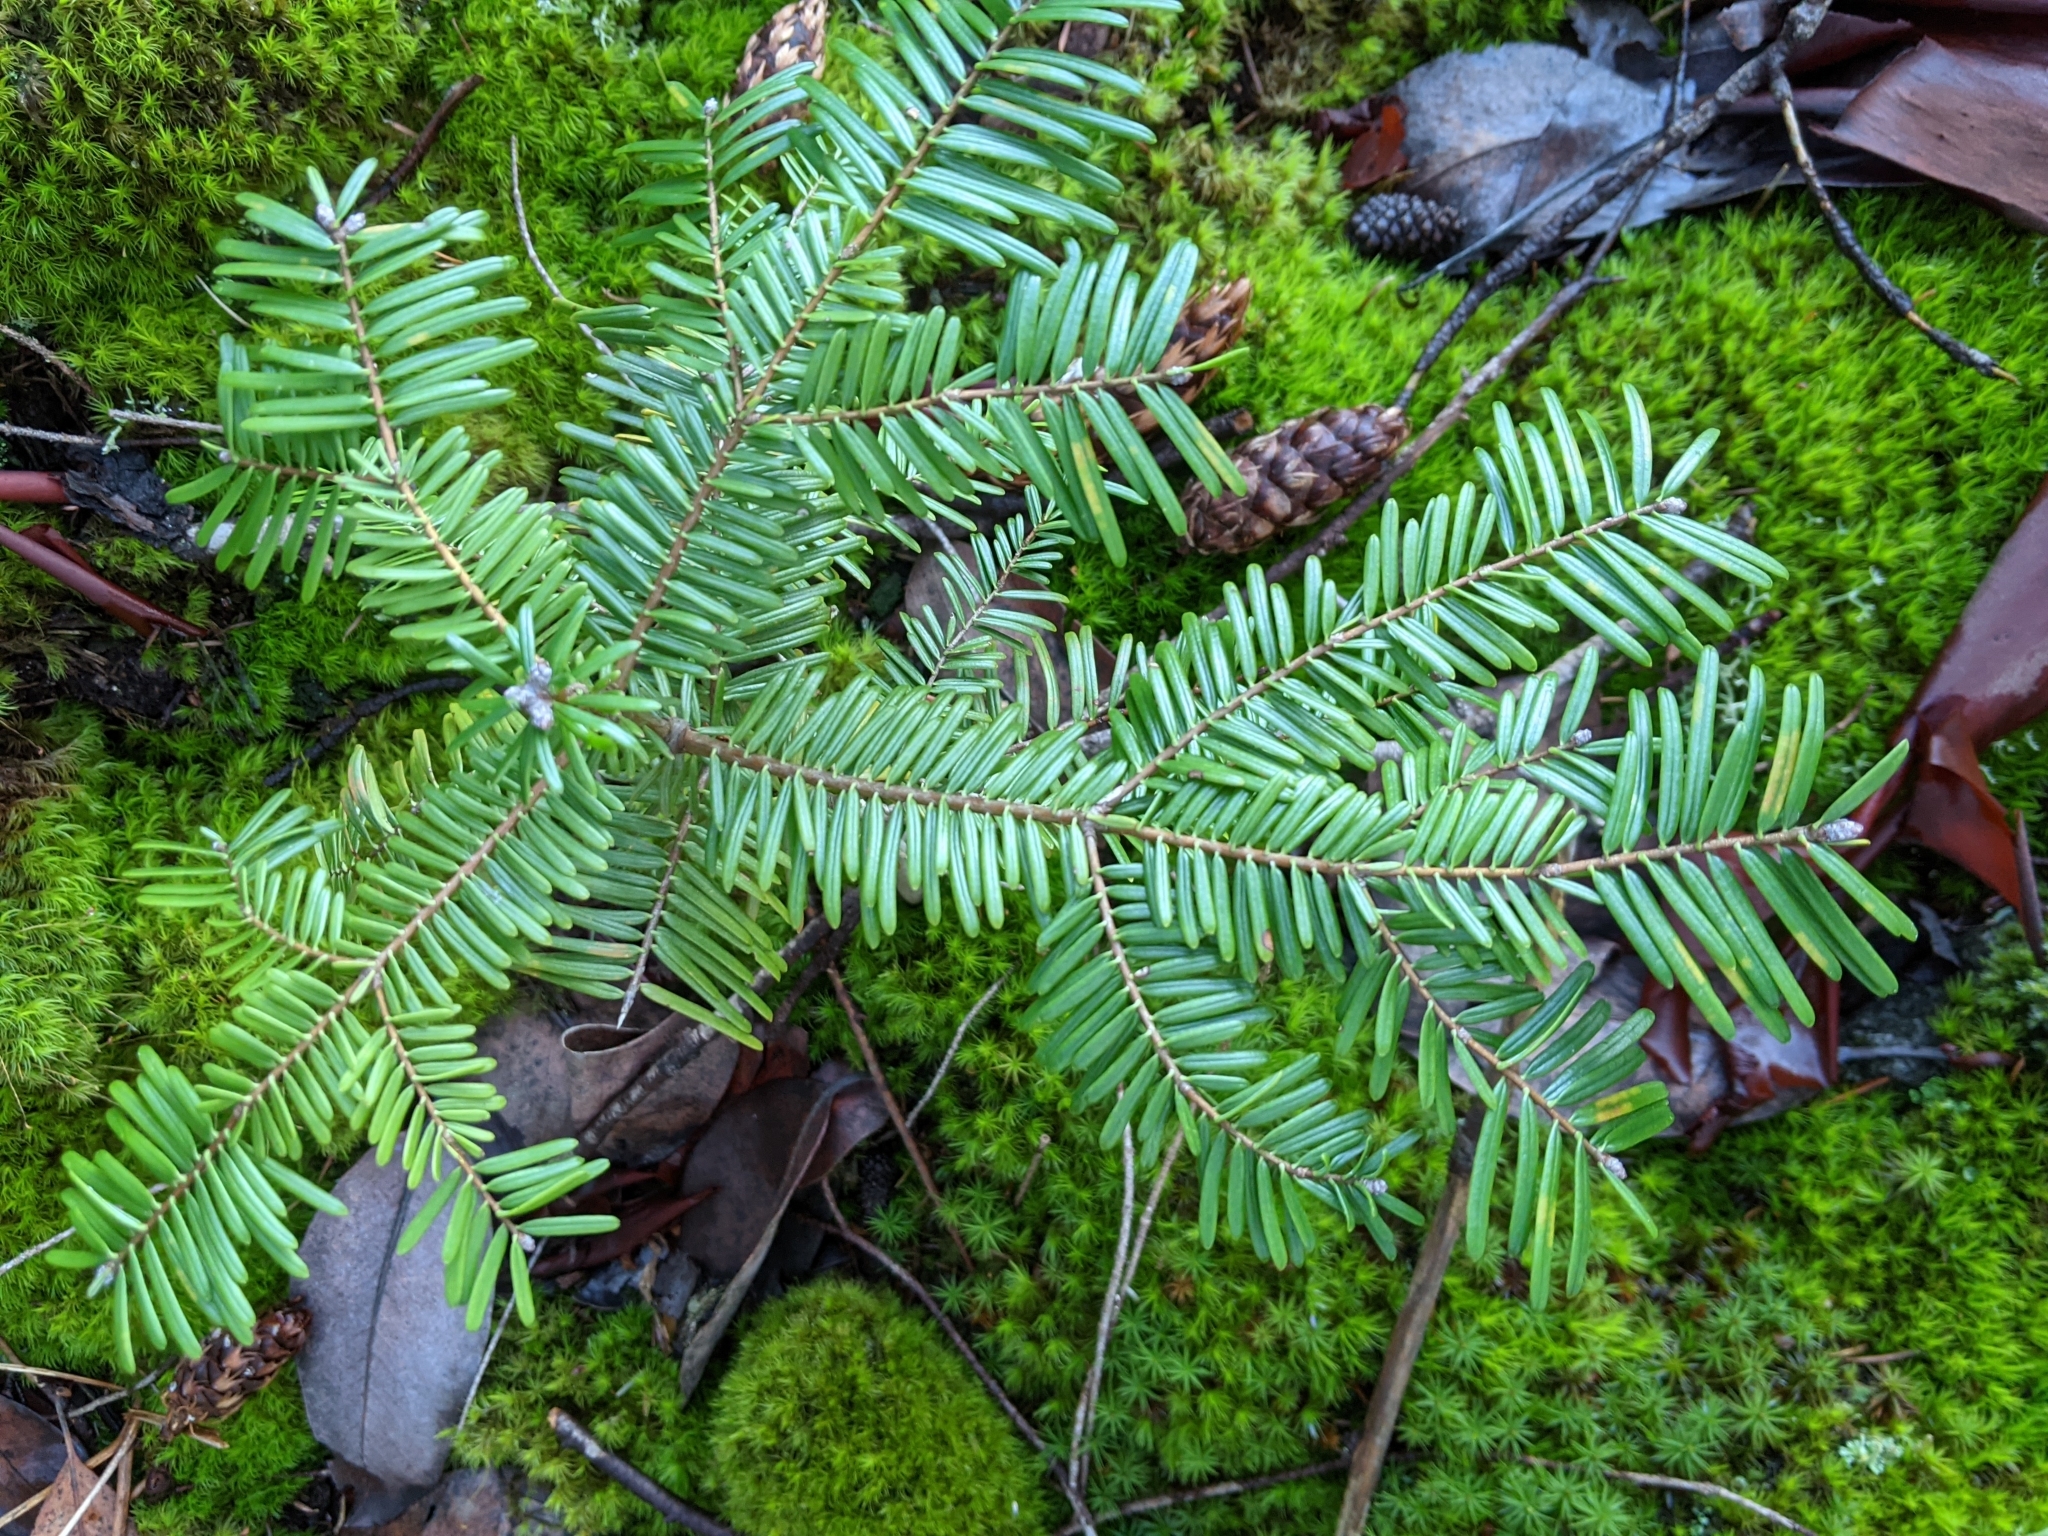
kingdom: Plantae
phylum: Tracheophyta
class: Pinopsida
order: Pinales
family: Pinaceae
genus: Abies
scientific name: Abies grandis
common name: Giant fir
